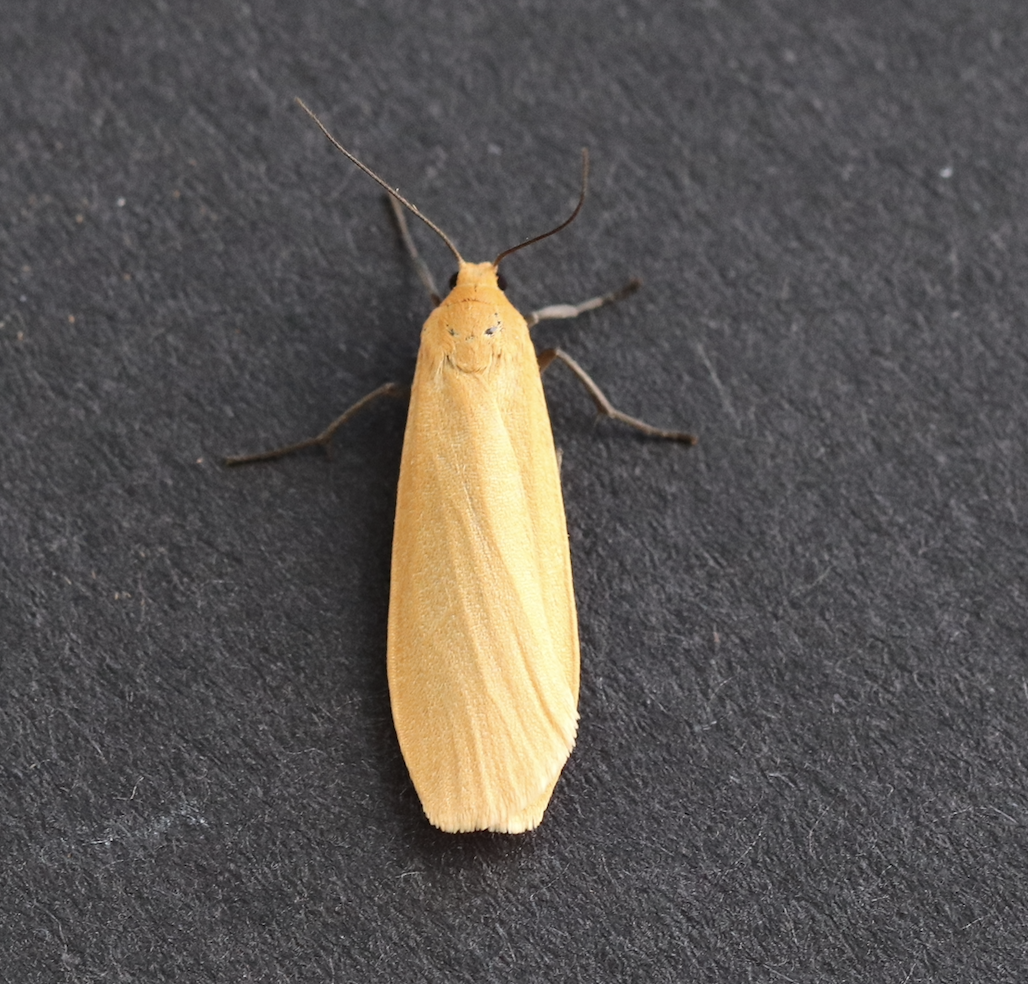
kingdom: Animalia
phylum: Arthropoda
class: Insecta
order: Lepidoptera
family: Erebidae
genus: Wittia
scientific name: Wittia sororcula
